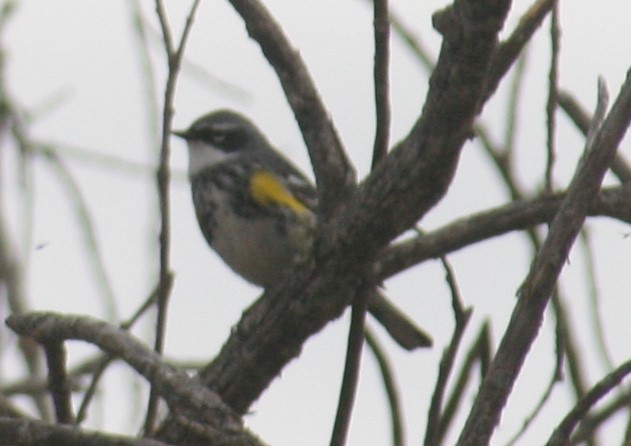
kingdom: Animalia
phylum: Chordata
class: Aves
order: Passeriformes
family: Parulidae
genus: Setophaga
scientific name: Setophaga coronata
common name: Myrtle warbler
